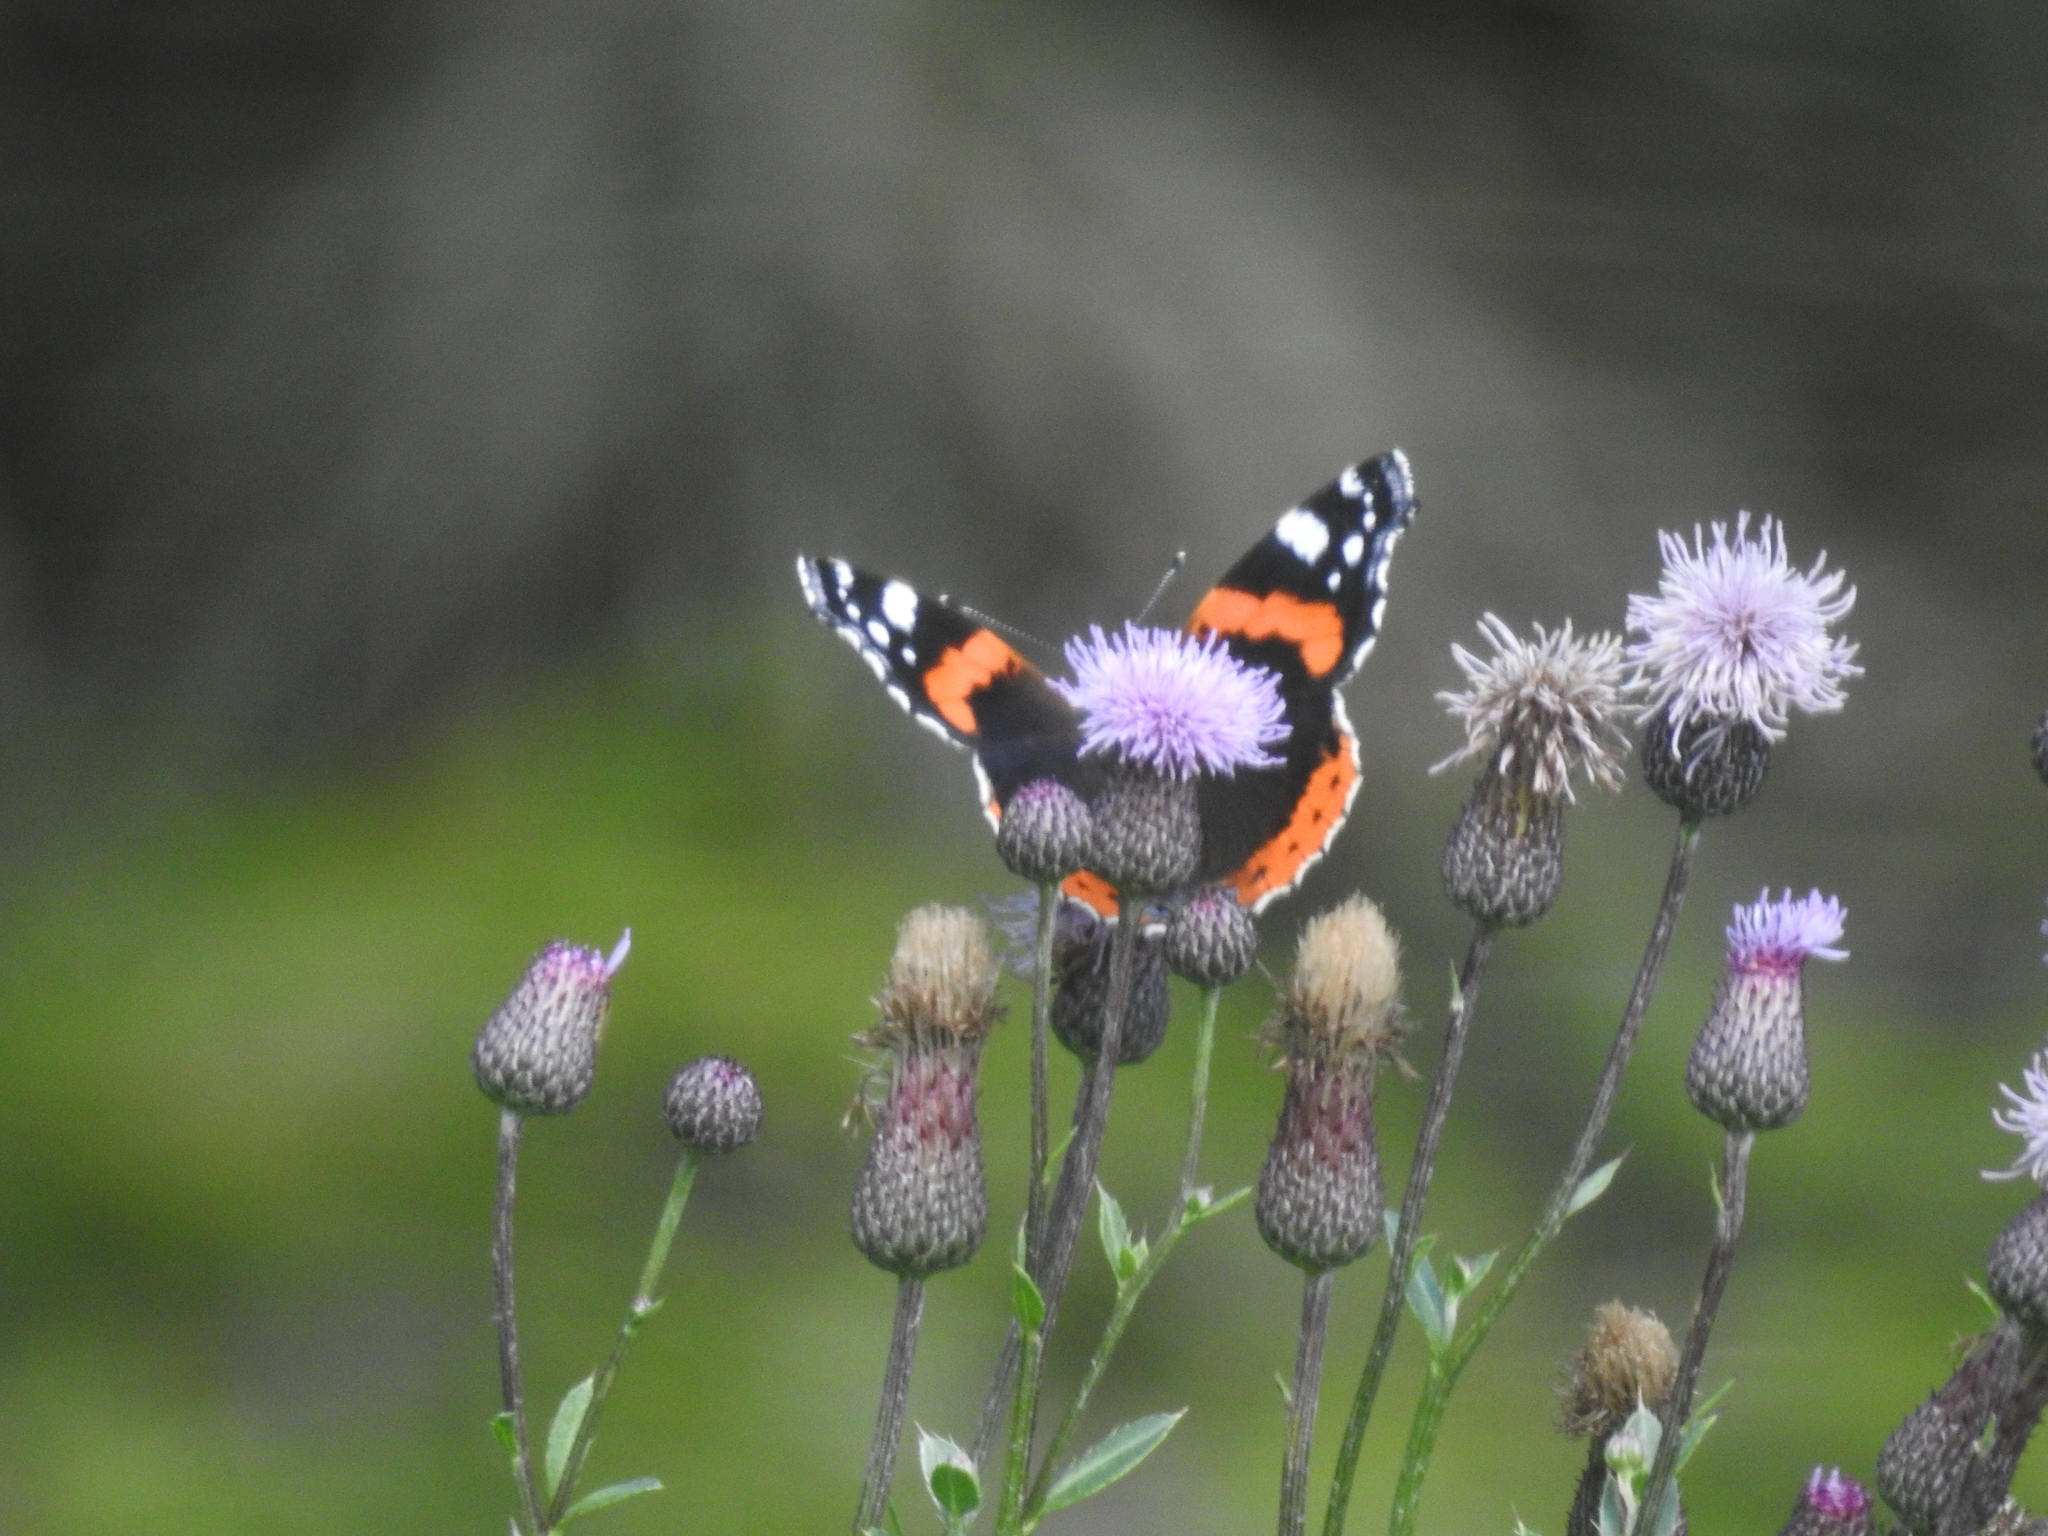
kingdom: Animalia
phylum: Arthropoda
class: Insecta
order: Lepidoptera
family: Nymphalidae
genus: Vanessa
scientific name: Vanessa atalanta
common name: Red admiral
